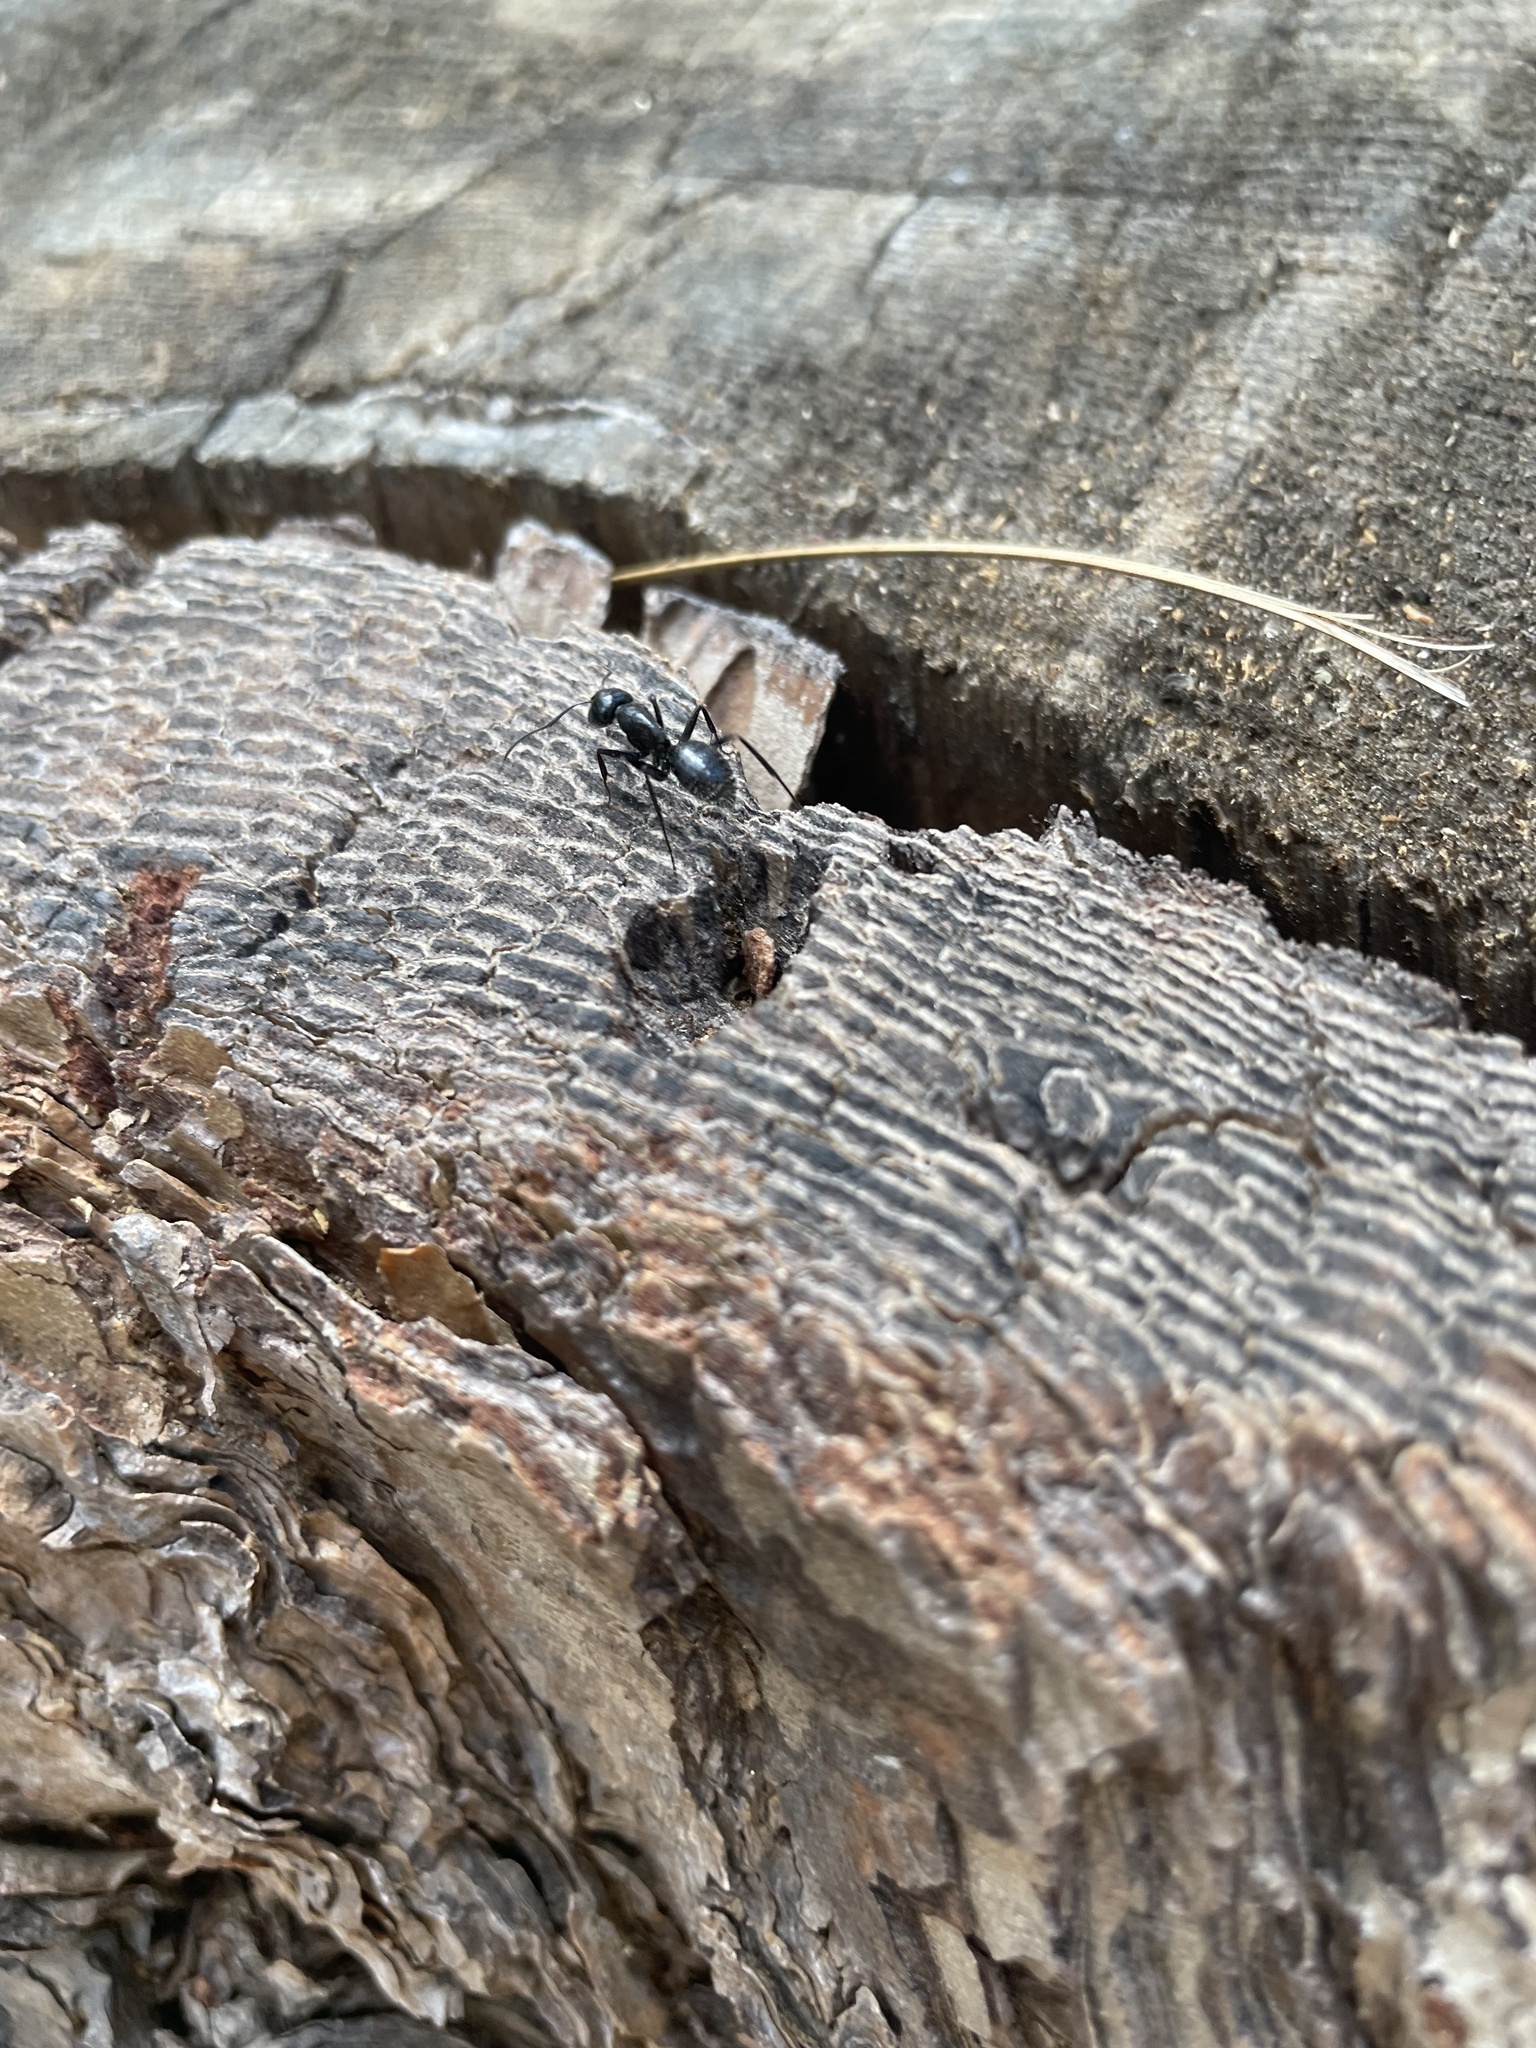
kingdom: Animalia
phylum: Arthropoda
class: Insecta
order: Hymenoptera
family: Formicidae
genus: Camponotus
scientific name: Camponotus
